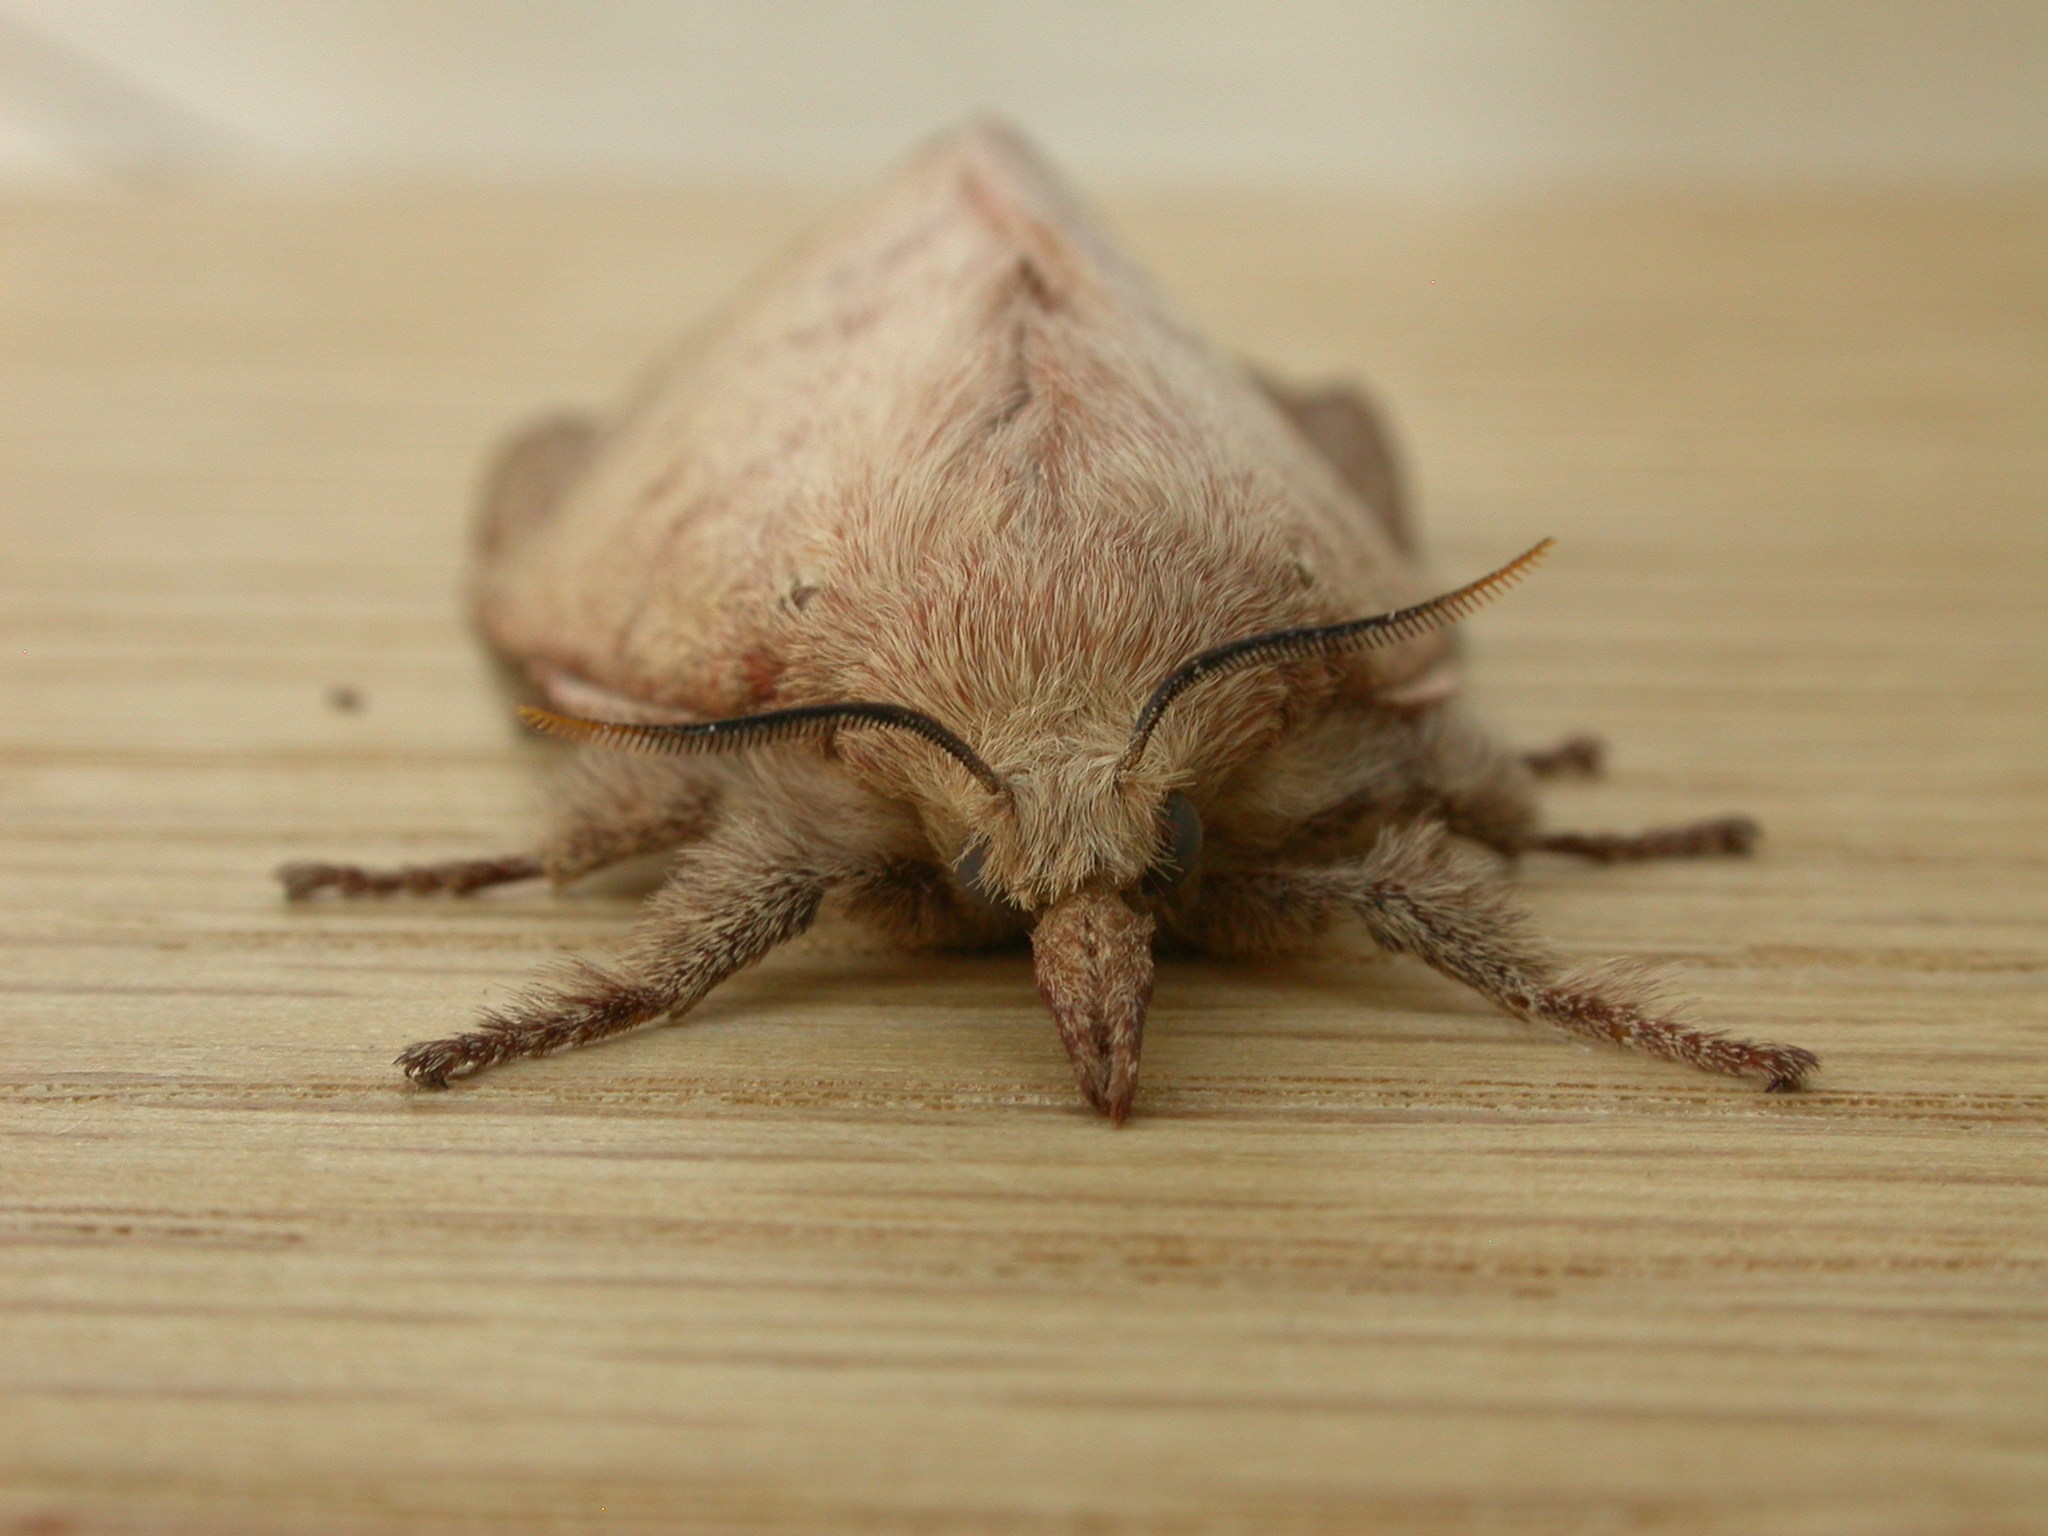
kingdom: Animalia
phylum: Arthropoda
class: Insecta
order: Lepidoptera
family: Lasiocampidae
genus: Entometa
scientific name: Entometa apicalis
